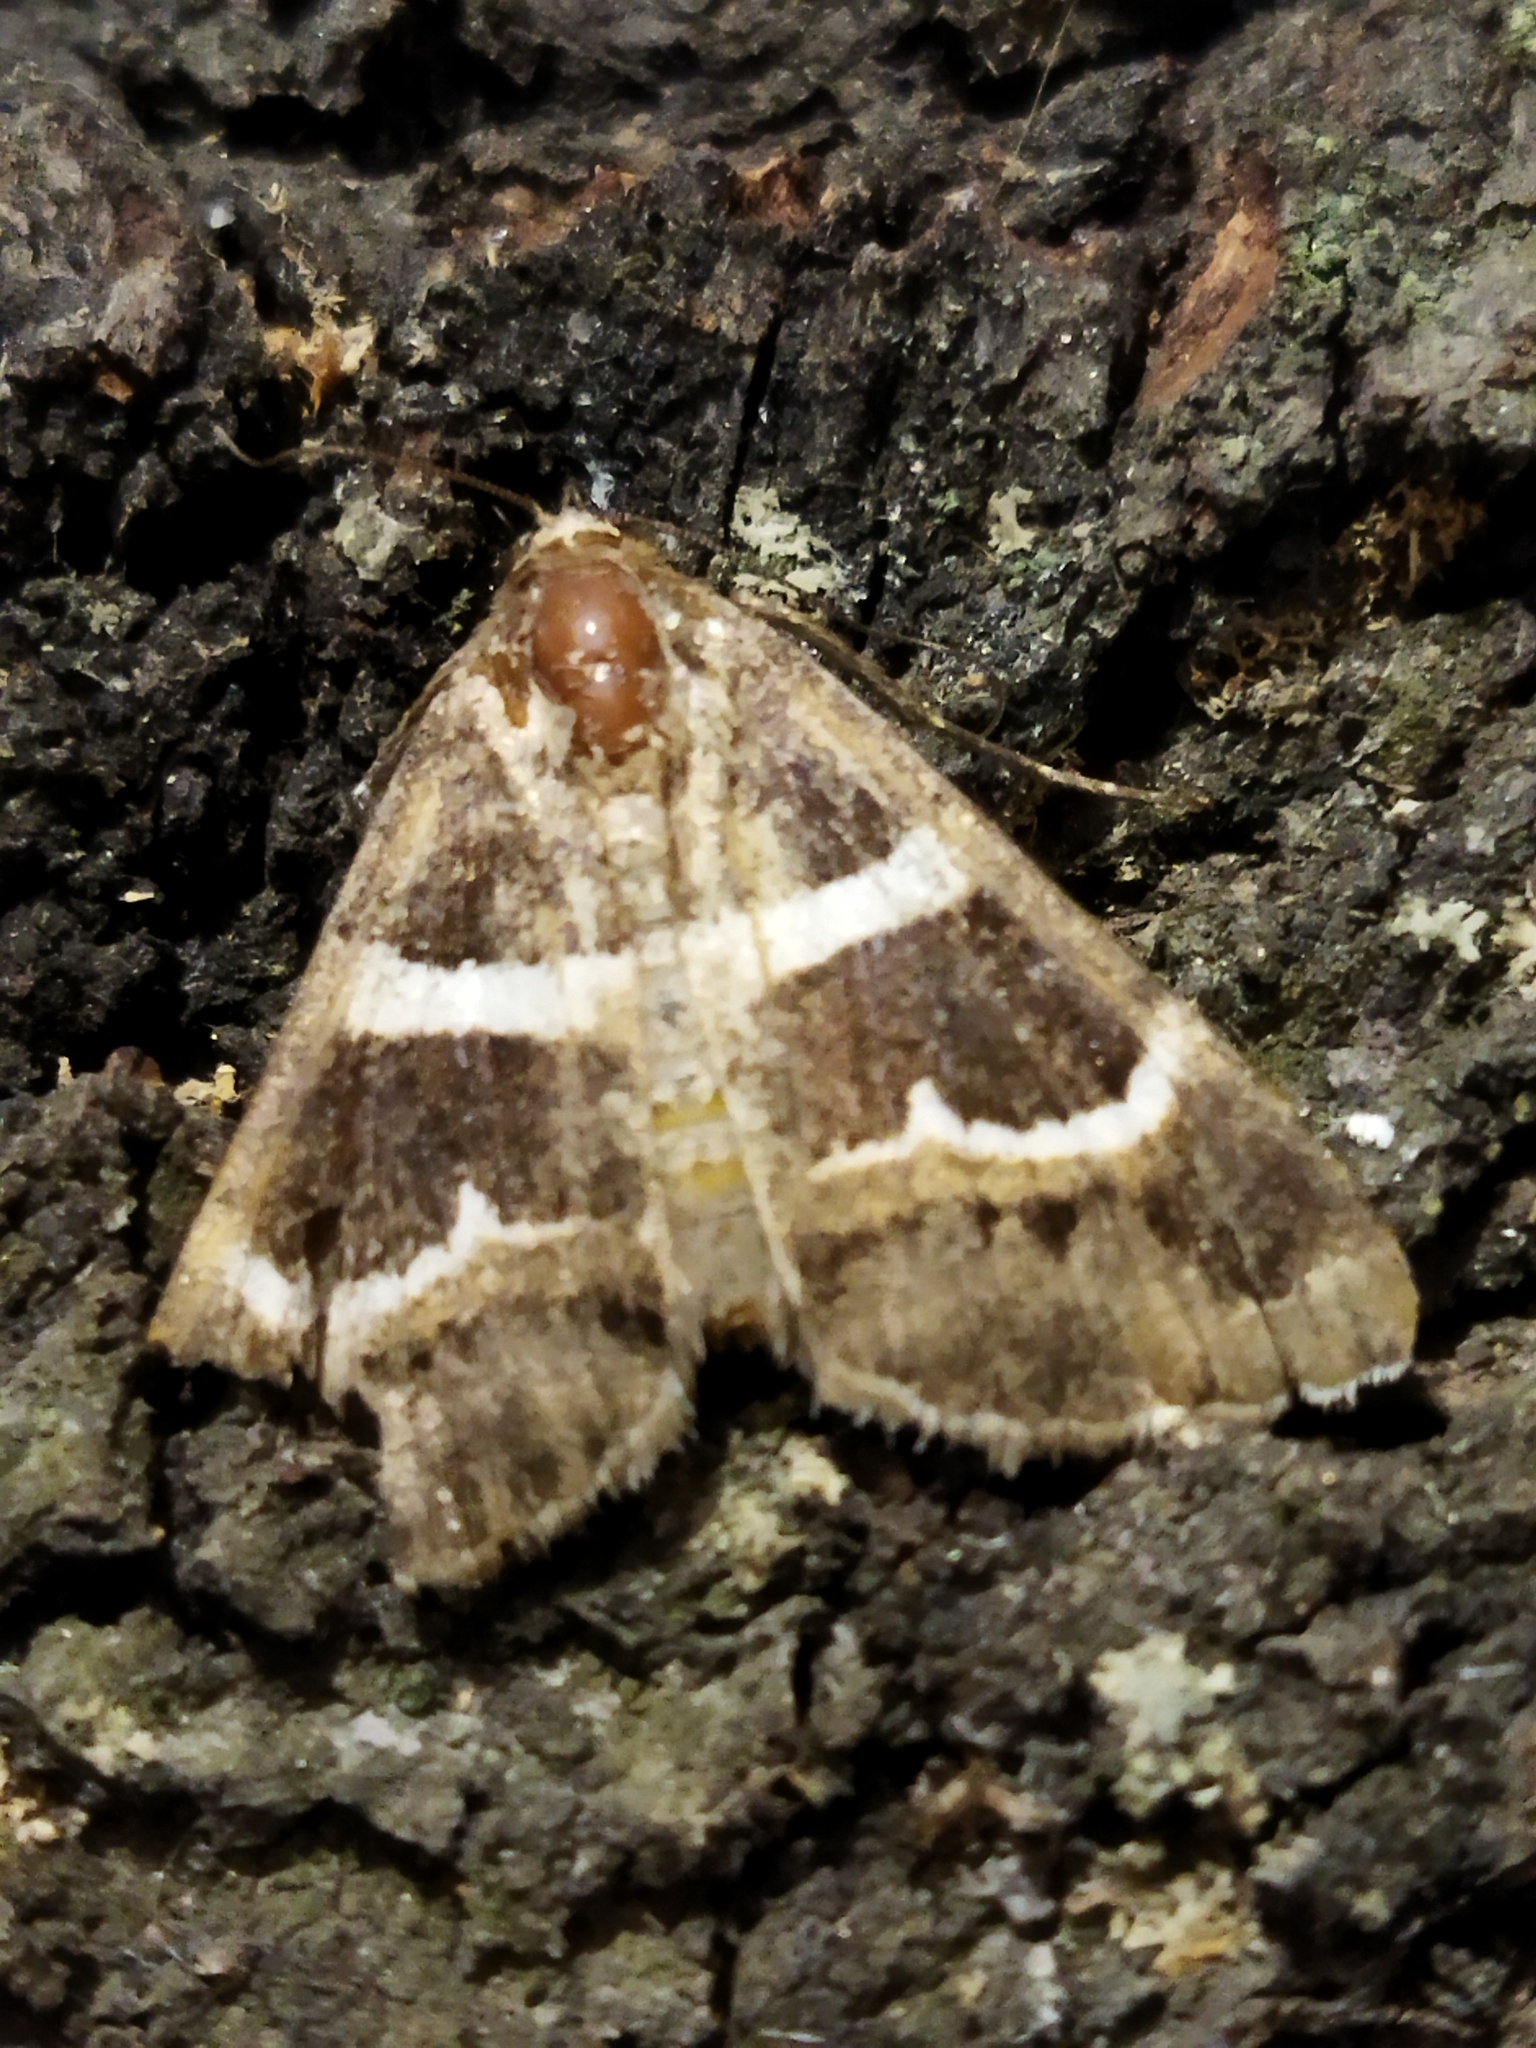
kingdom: Animalia
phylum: Arthropoda
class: Insecta
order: Lepidoptera
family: Erebidae
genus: Grammodes
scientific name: Grammodes stolida
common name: Geometrician
